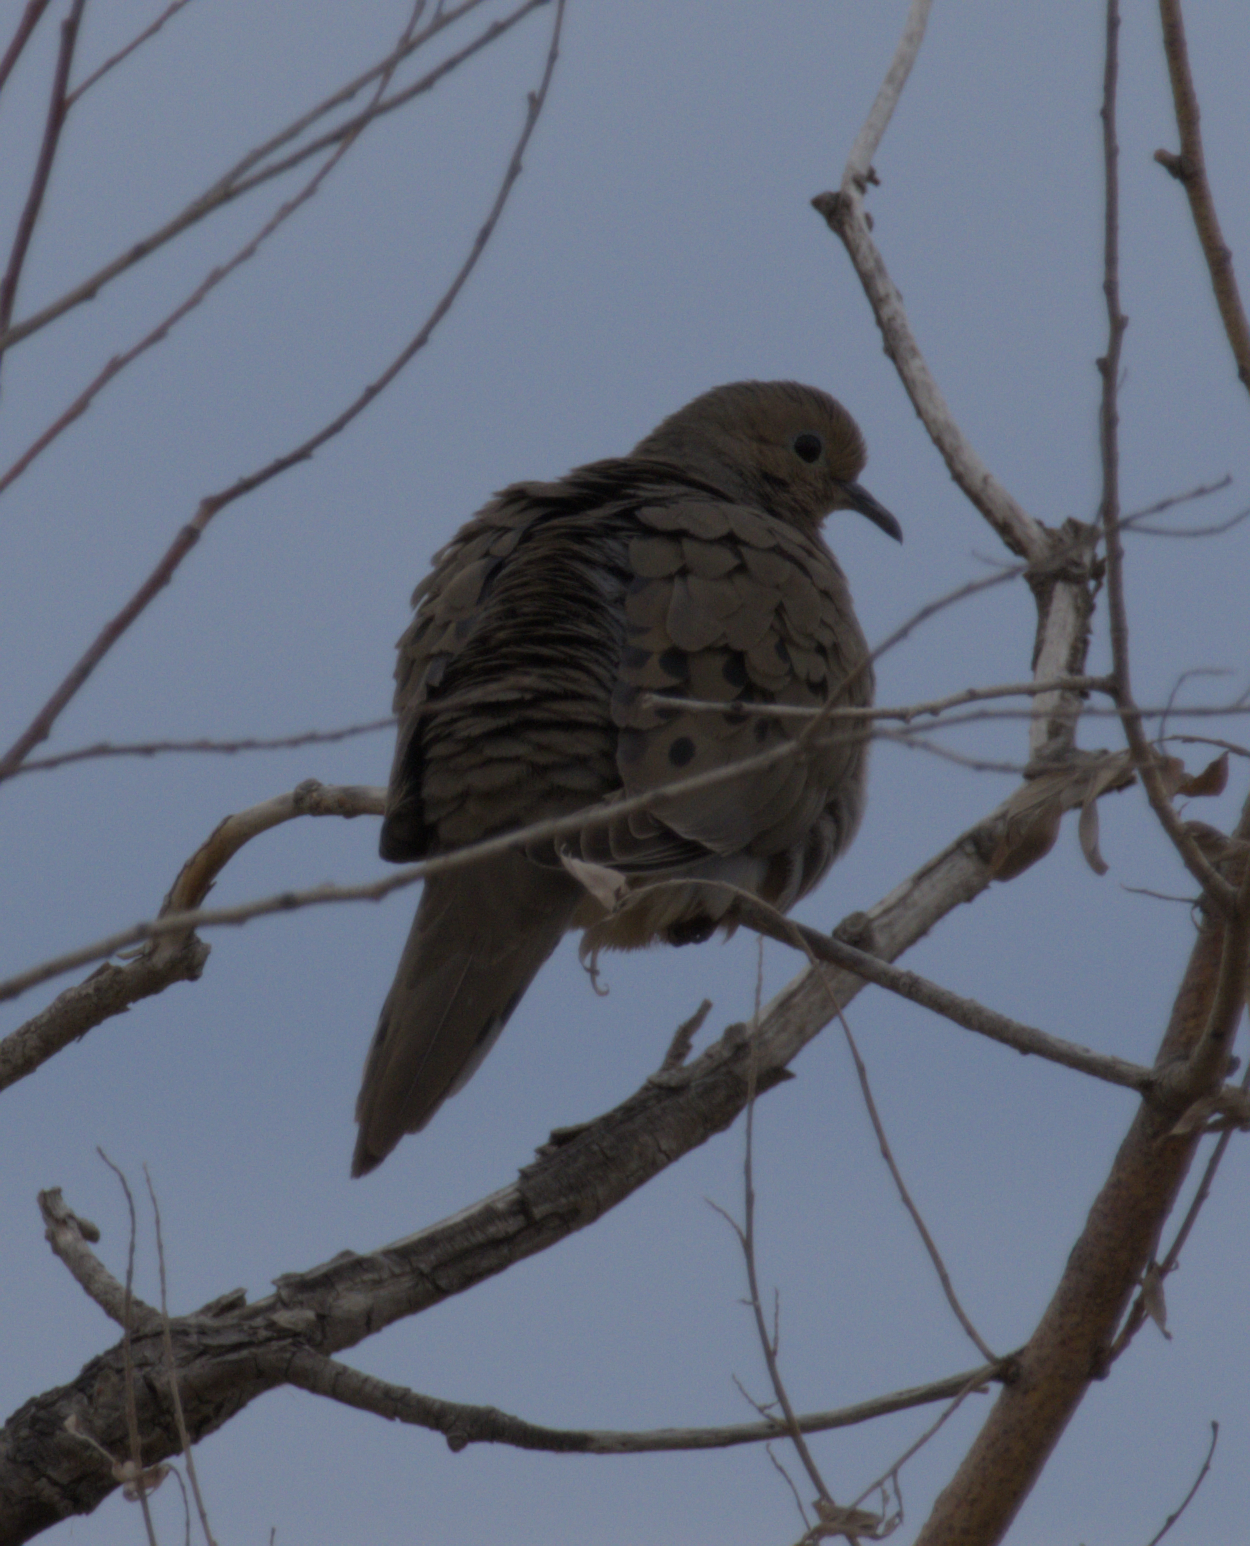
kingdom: Animalia
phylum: Chordata
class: Aves
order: Columbiformes
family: Columbidae
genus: Zenaida
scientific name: Zenaida macroura
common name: Mourning dove
